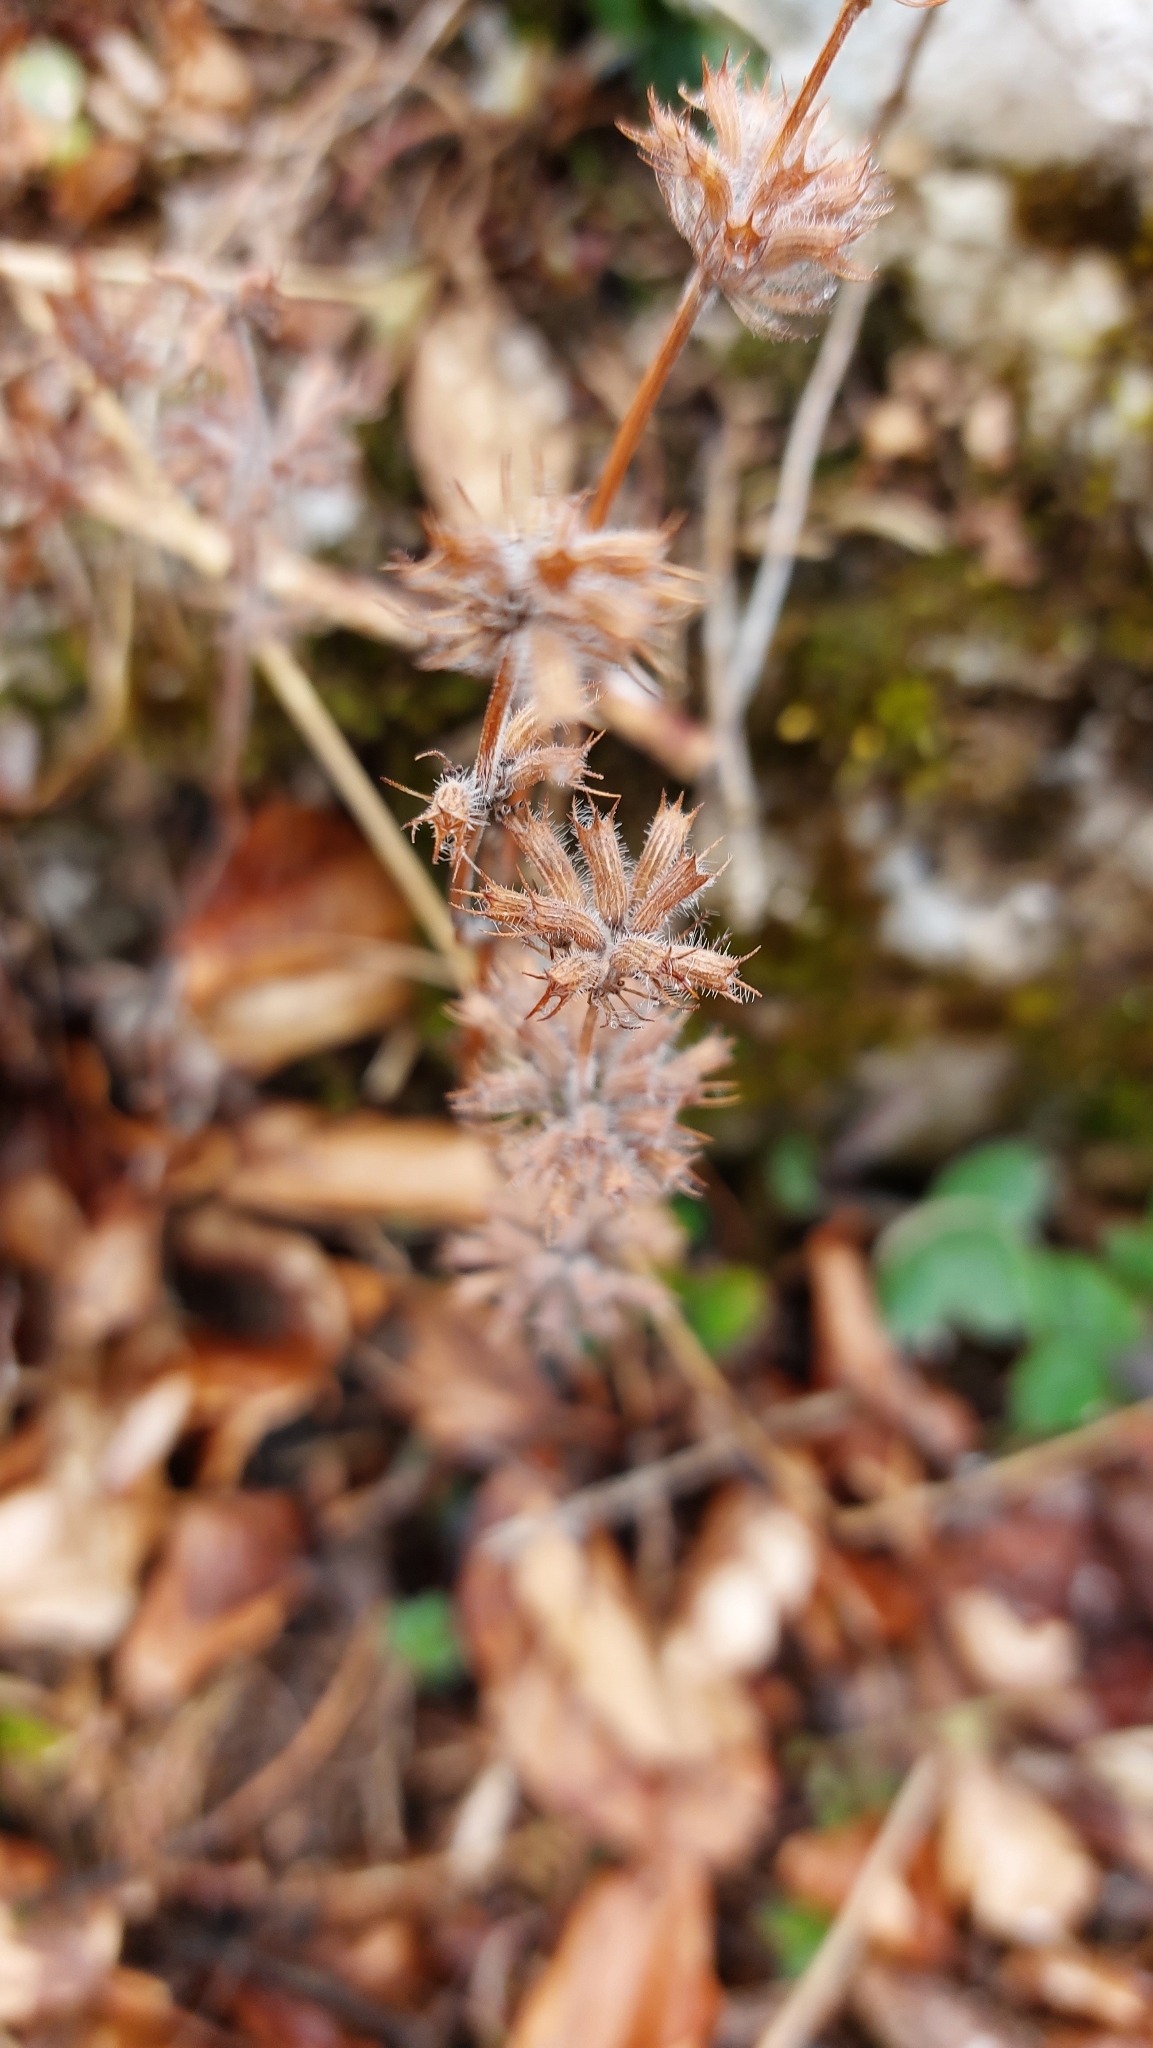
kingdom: Plantae
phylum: Tracheophyta
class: Magnoliopsida
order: Lamiales
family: Lamiaceae
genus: Clinopodium
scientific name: Clinopodium vulgare
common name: Wild basil
